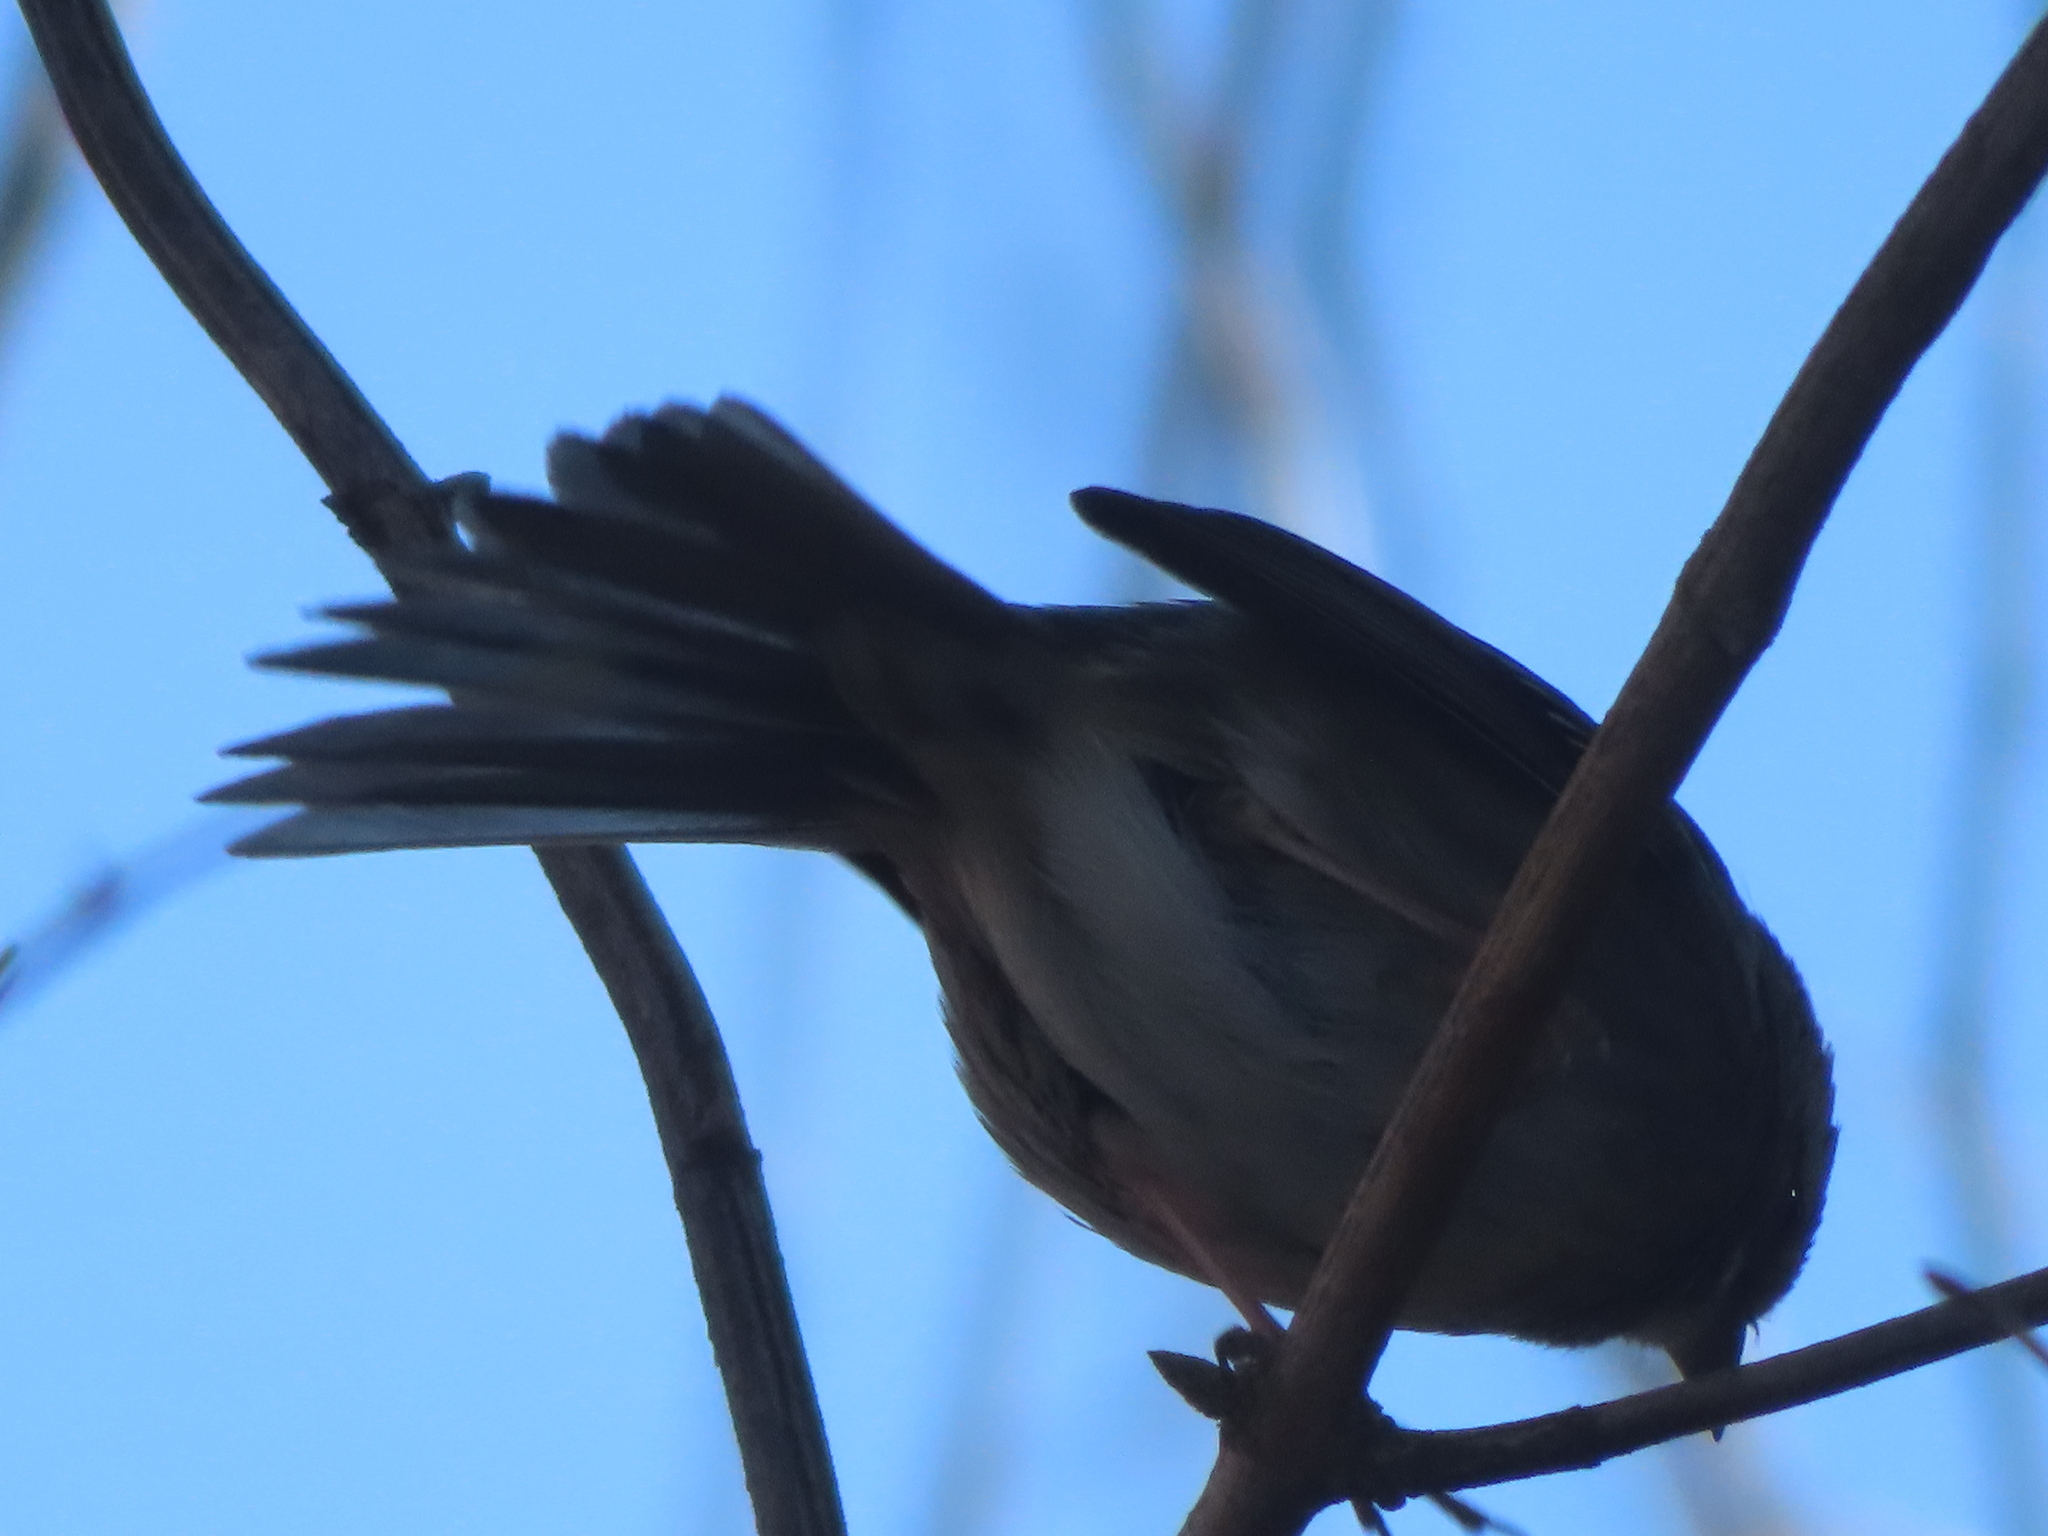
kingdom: Animalia
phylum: Chordata
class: Aves
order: Passeriformes
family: Passerellidae
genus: Zonotrichia
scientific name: Zonotrichia albicollis
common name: White-throated sparrow
